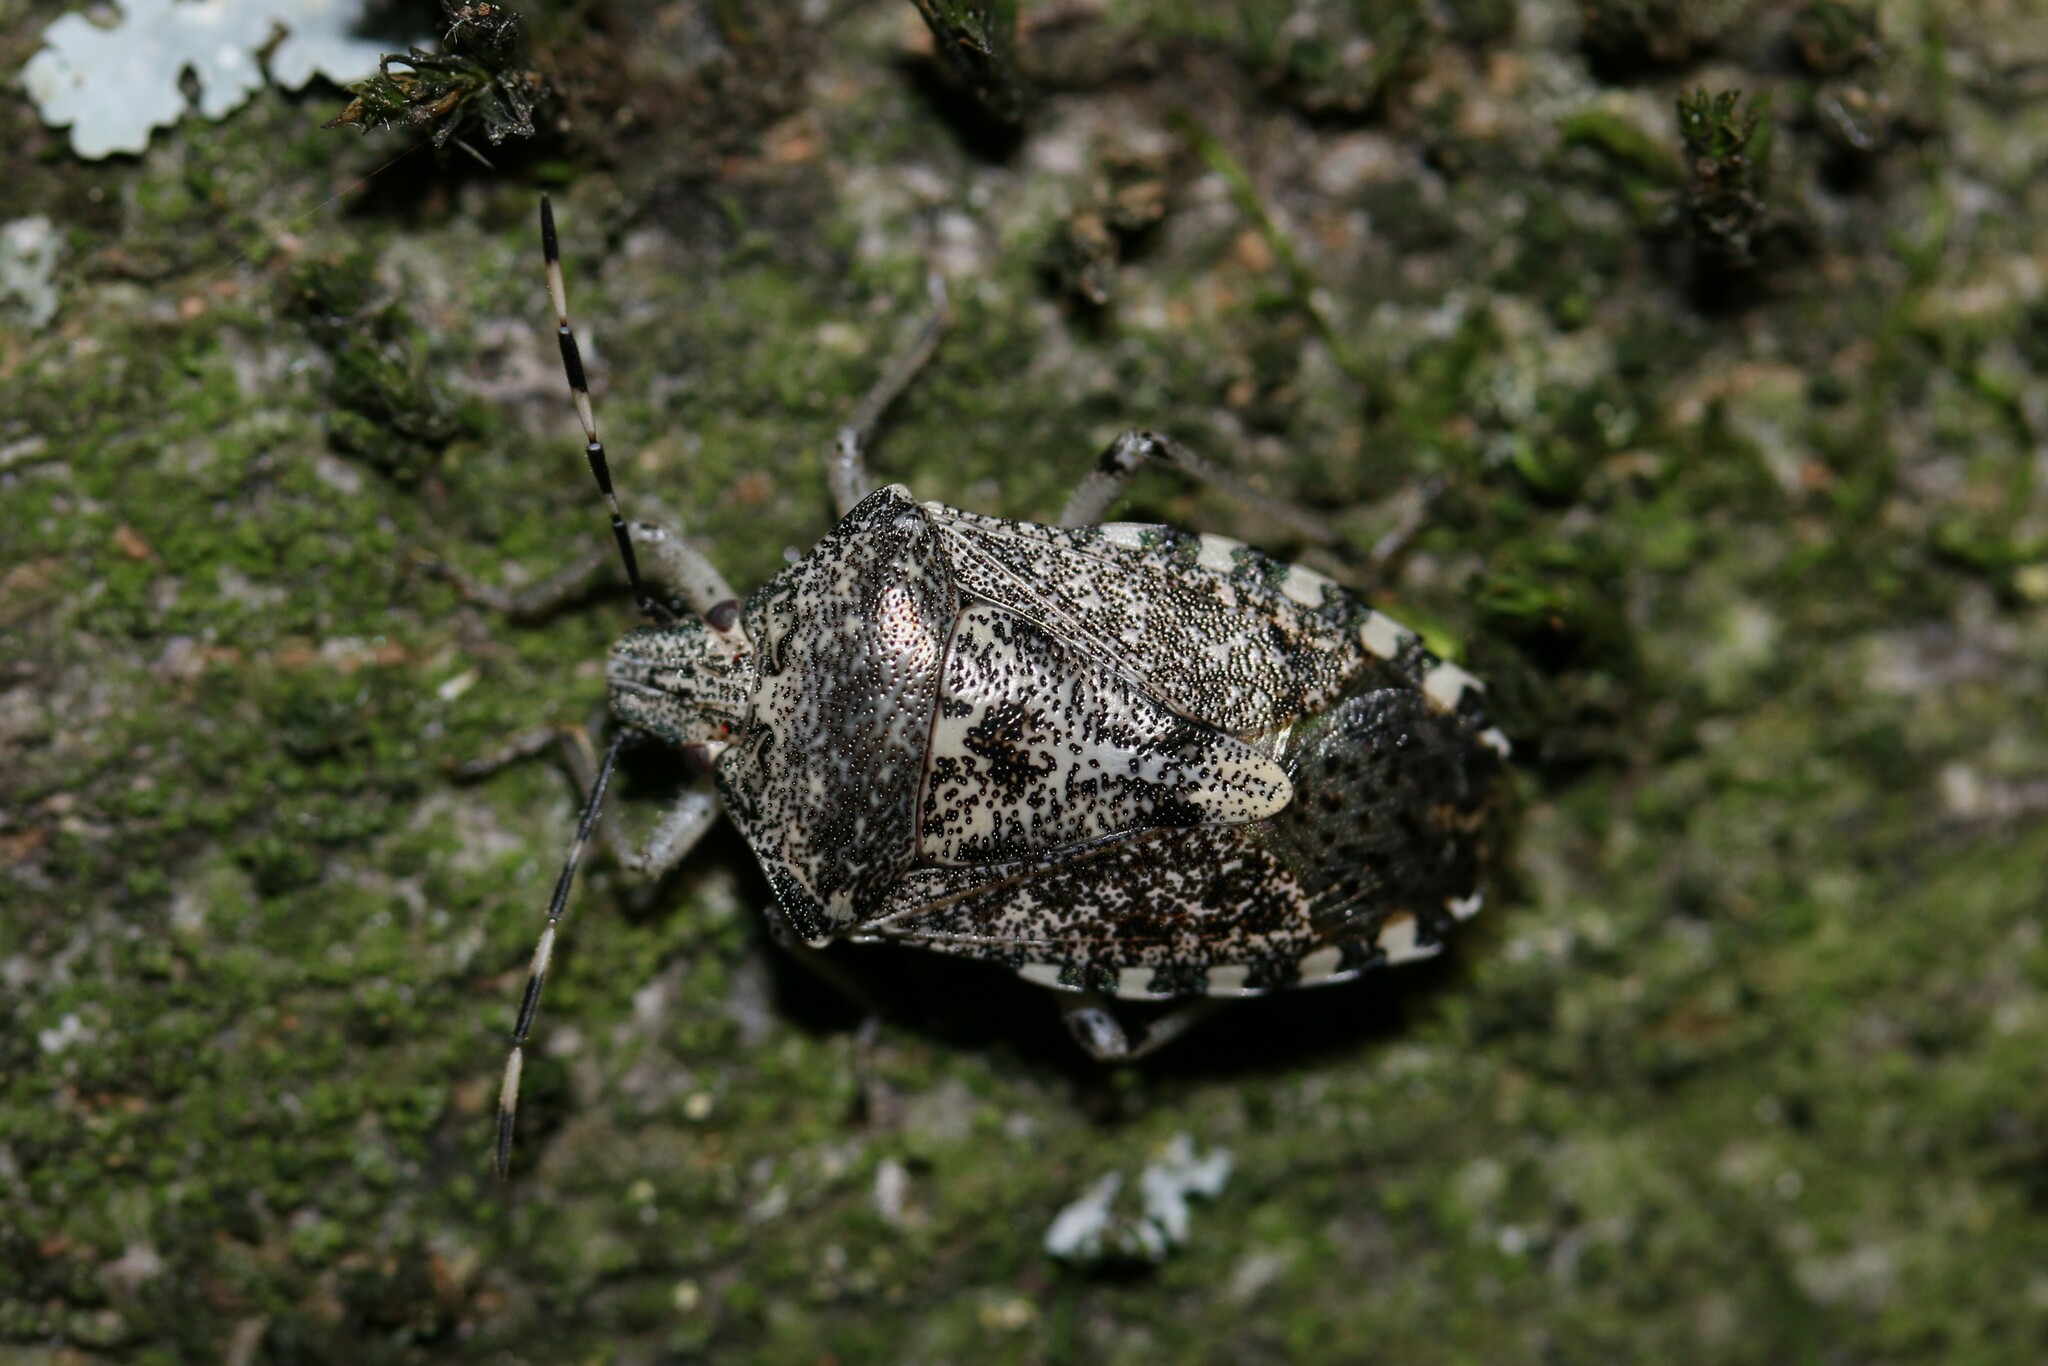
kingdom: Animalia
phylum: Arthropoda
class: Insecta
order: Hemiptera
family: Pentatomidae
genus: Rhaphigaster
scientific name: Rhaphigaster nebulosa
